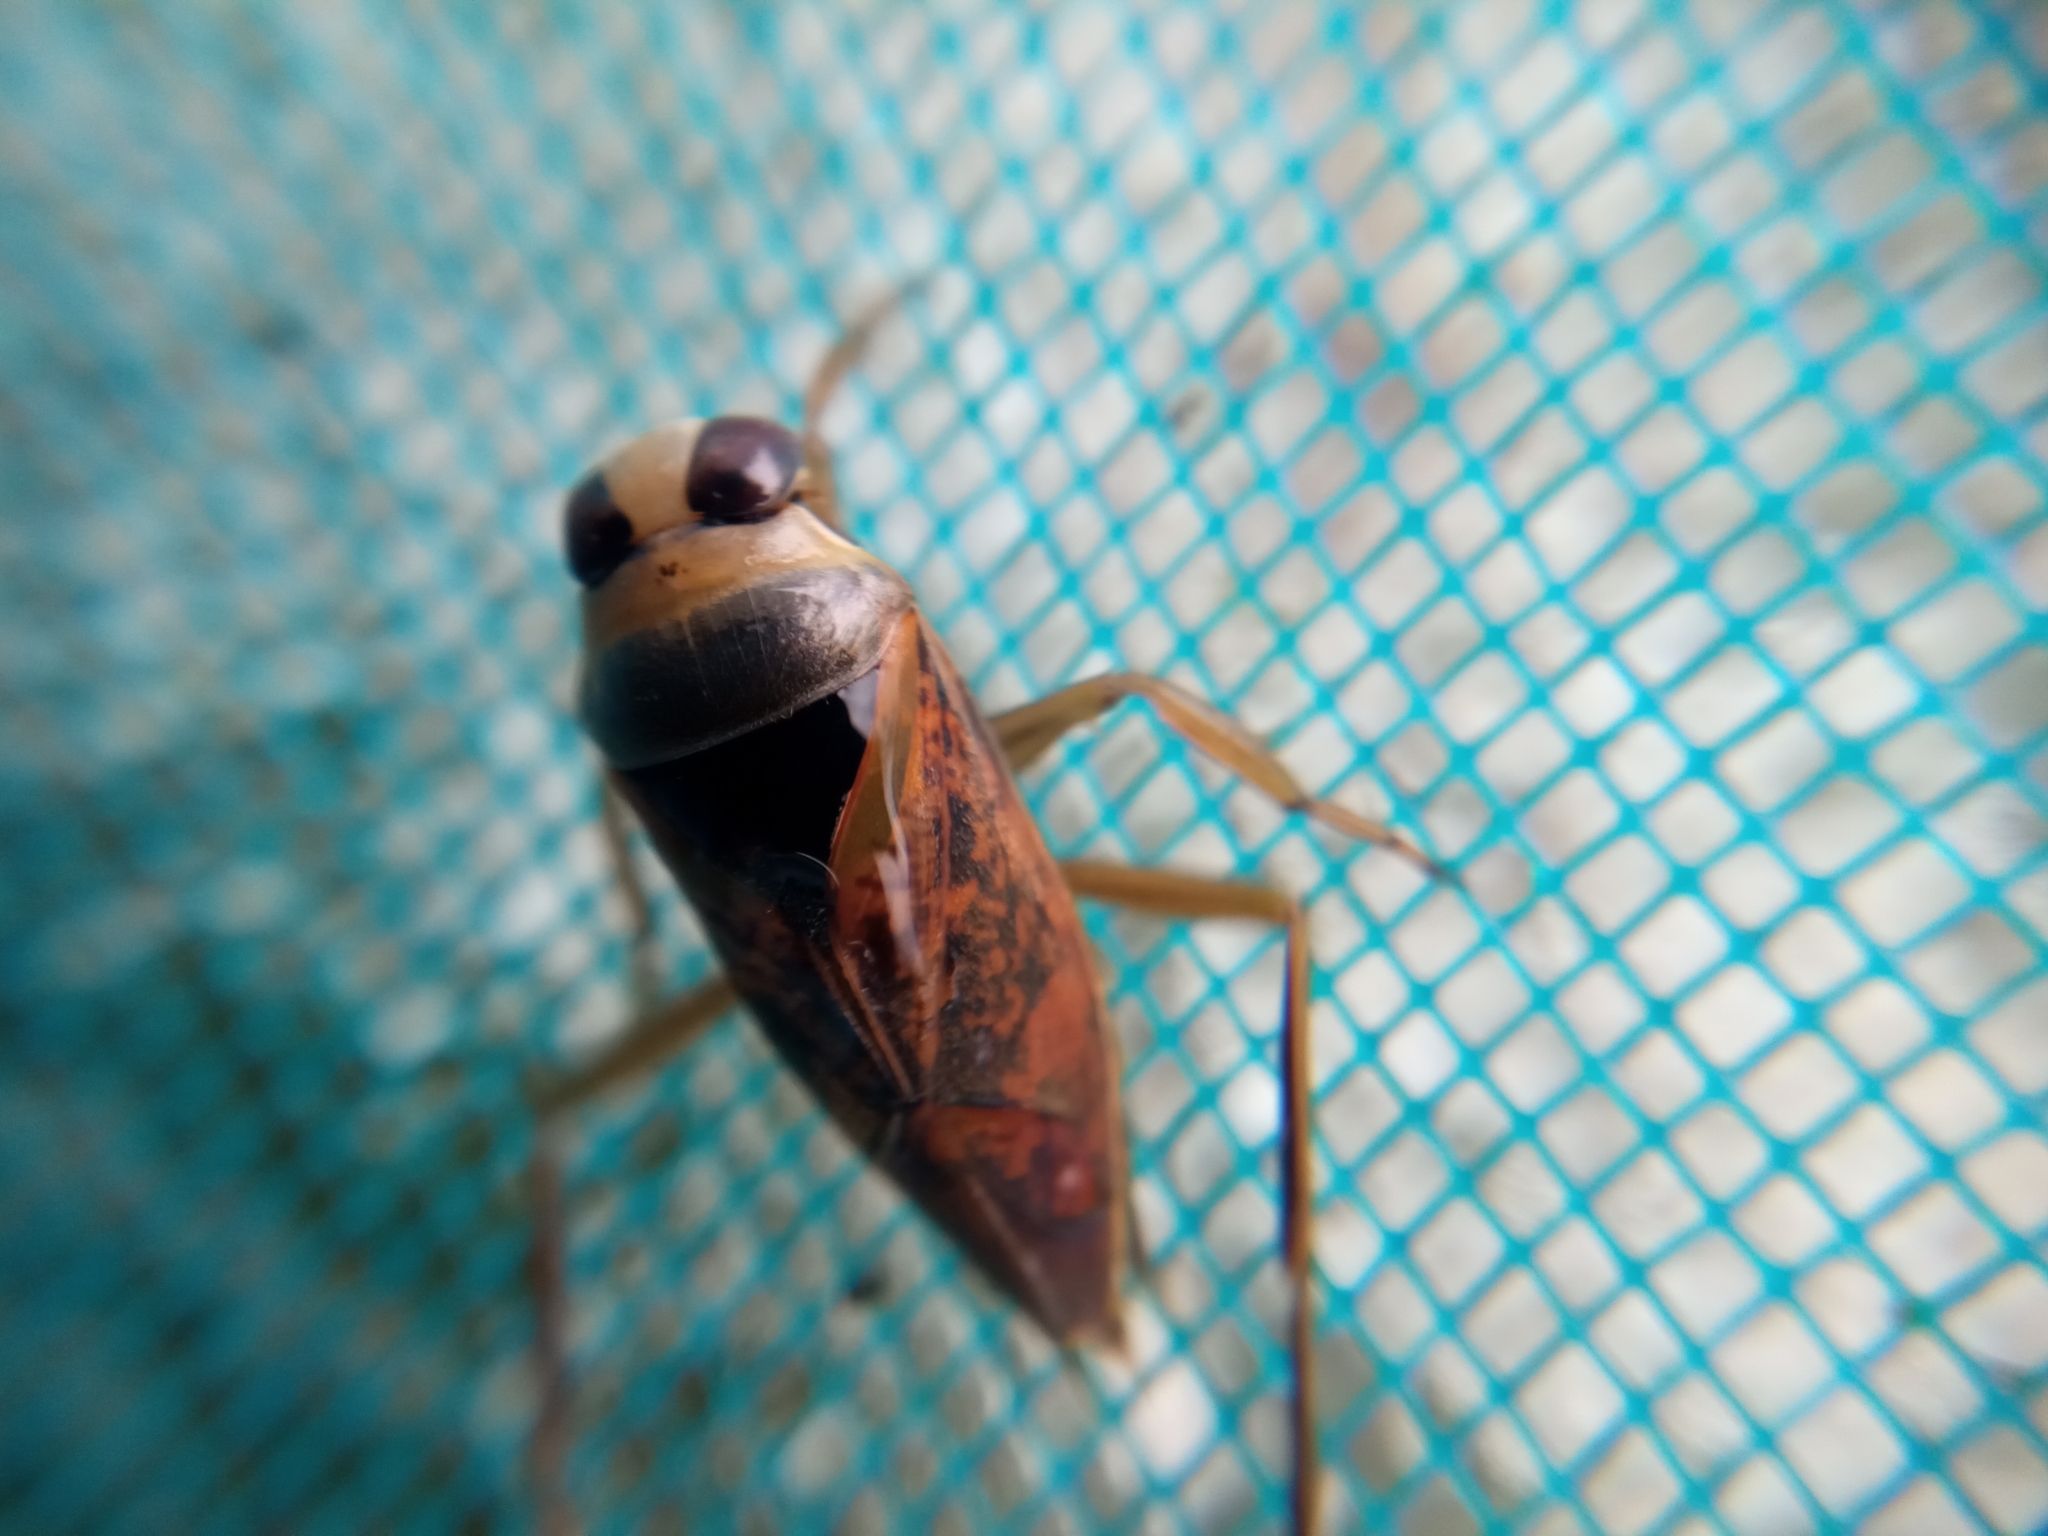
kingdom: Animalia
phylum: Arthropoda
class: Insecta
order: Hemiptera
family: Notonectidae
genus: Notonecta
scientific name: Notonecta maculata
